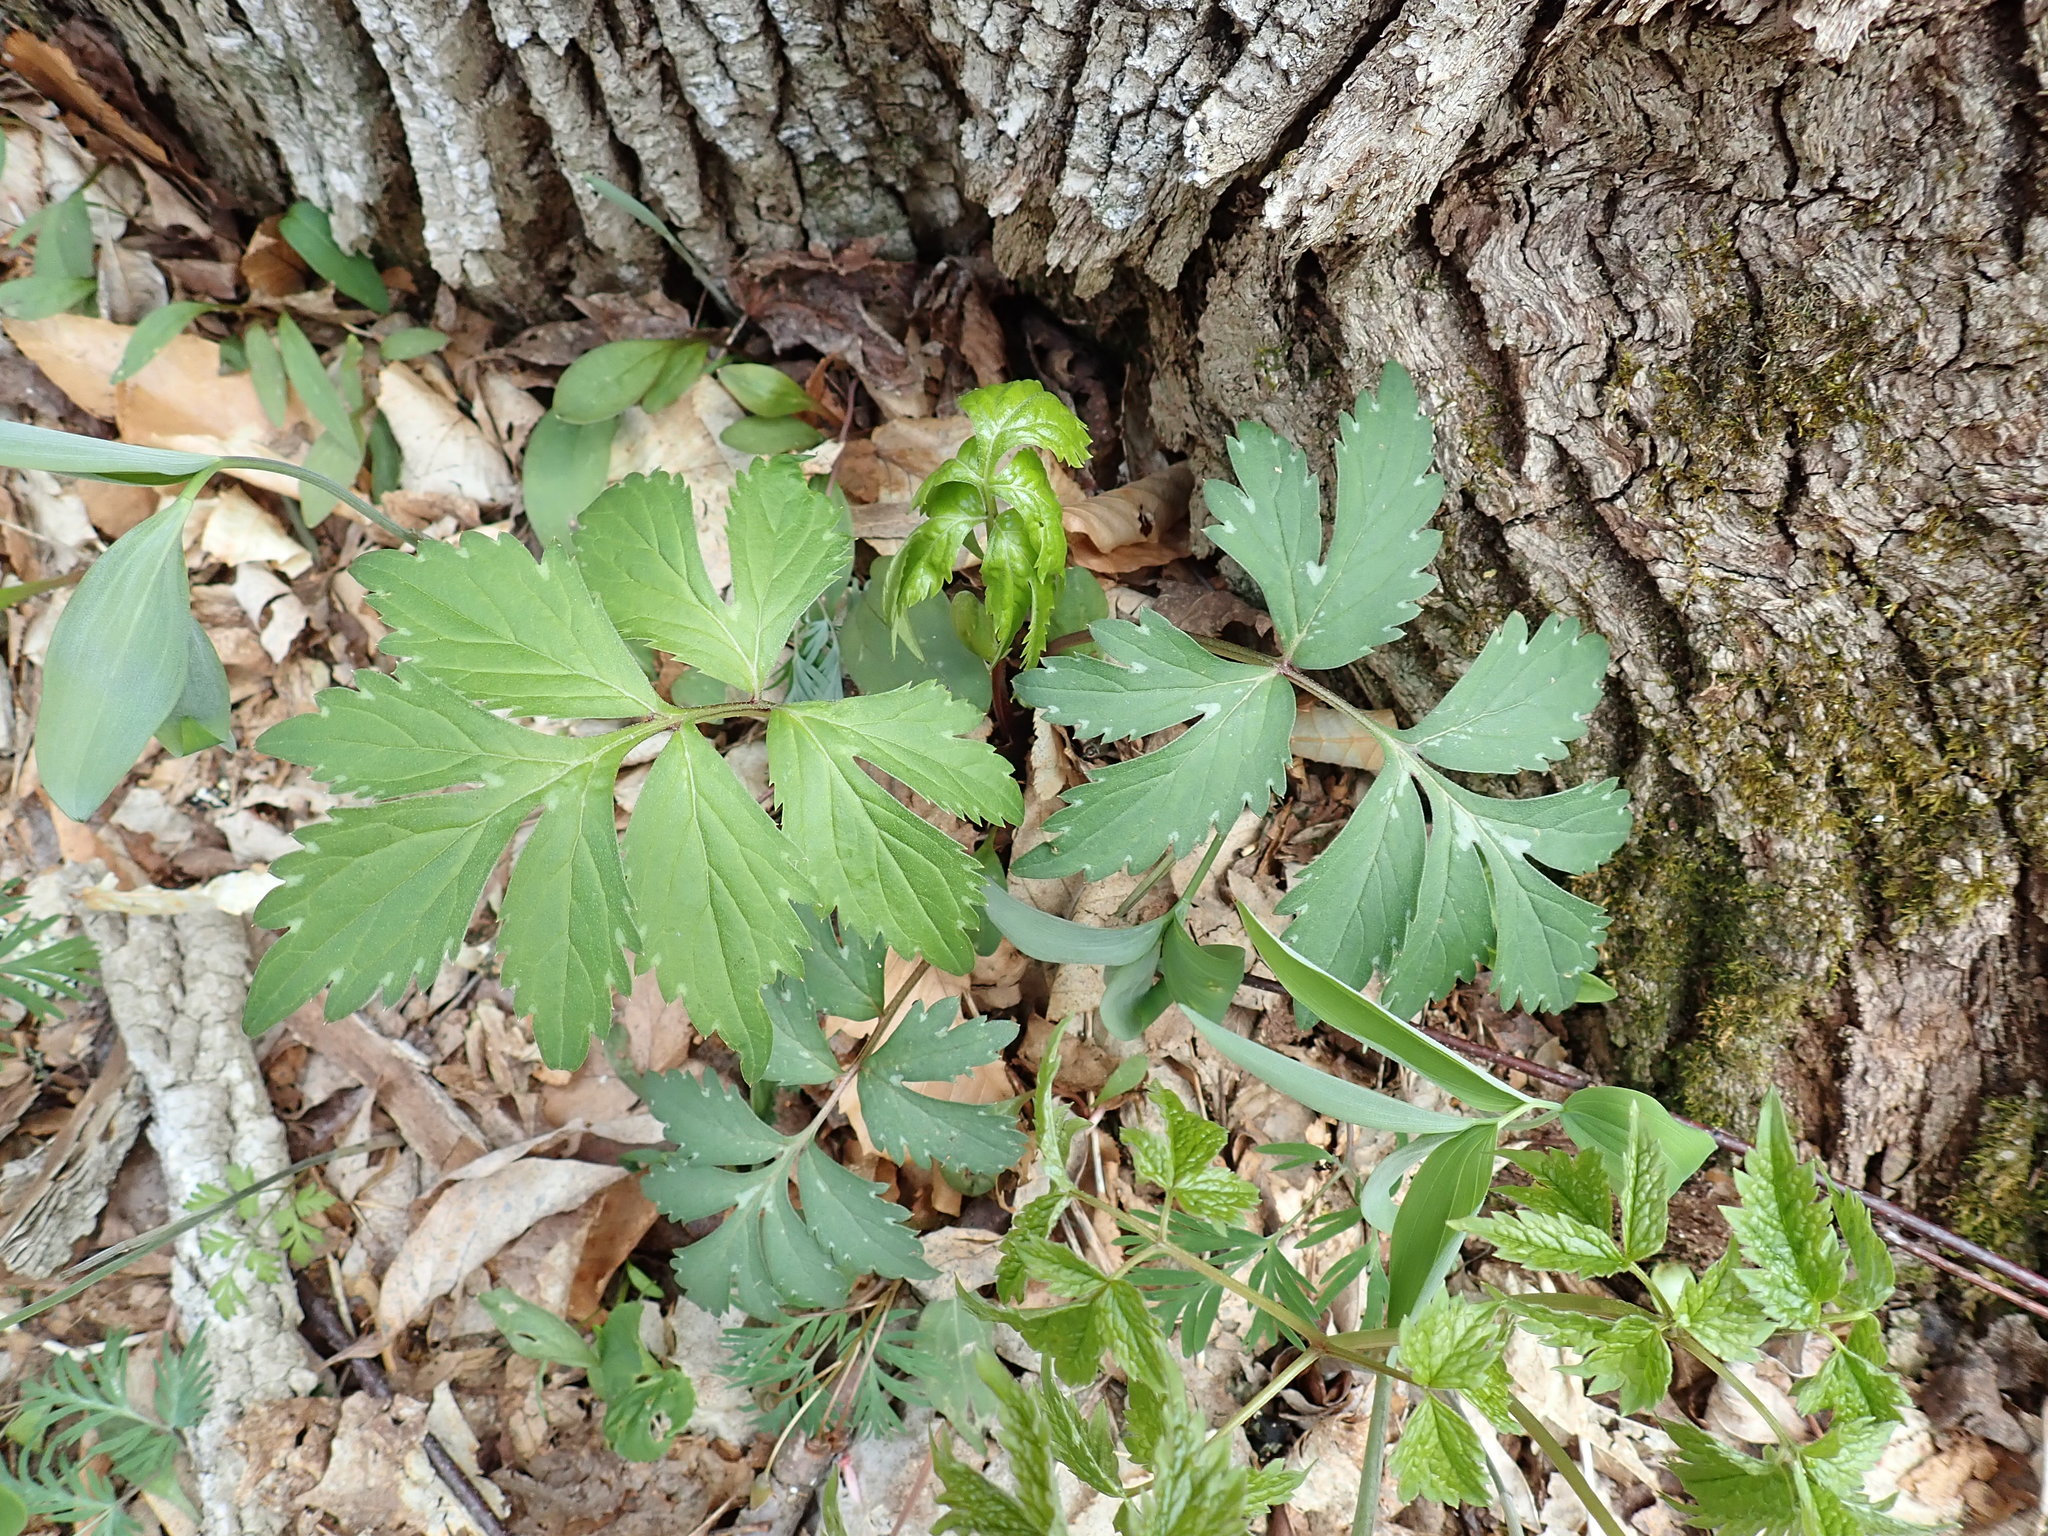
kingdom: Plantae
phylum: Tracheophyta
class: Magnoliopsida
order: Boraginales
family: Hydrophyllaceae
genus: Hydrophyllum
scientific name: Hydrophyllum virginianum
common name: Virginia waterleaf
